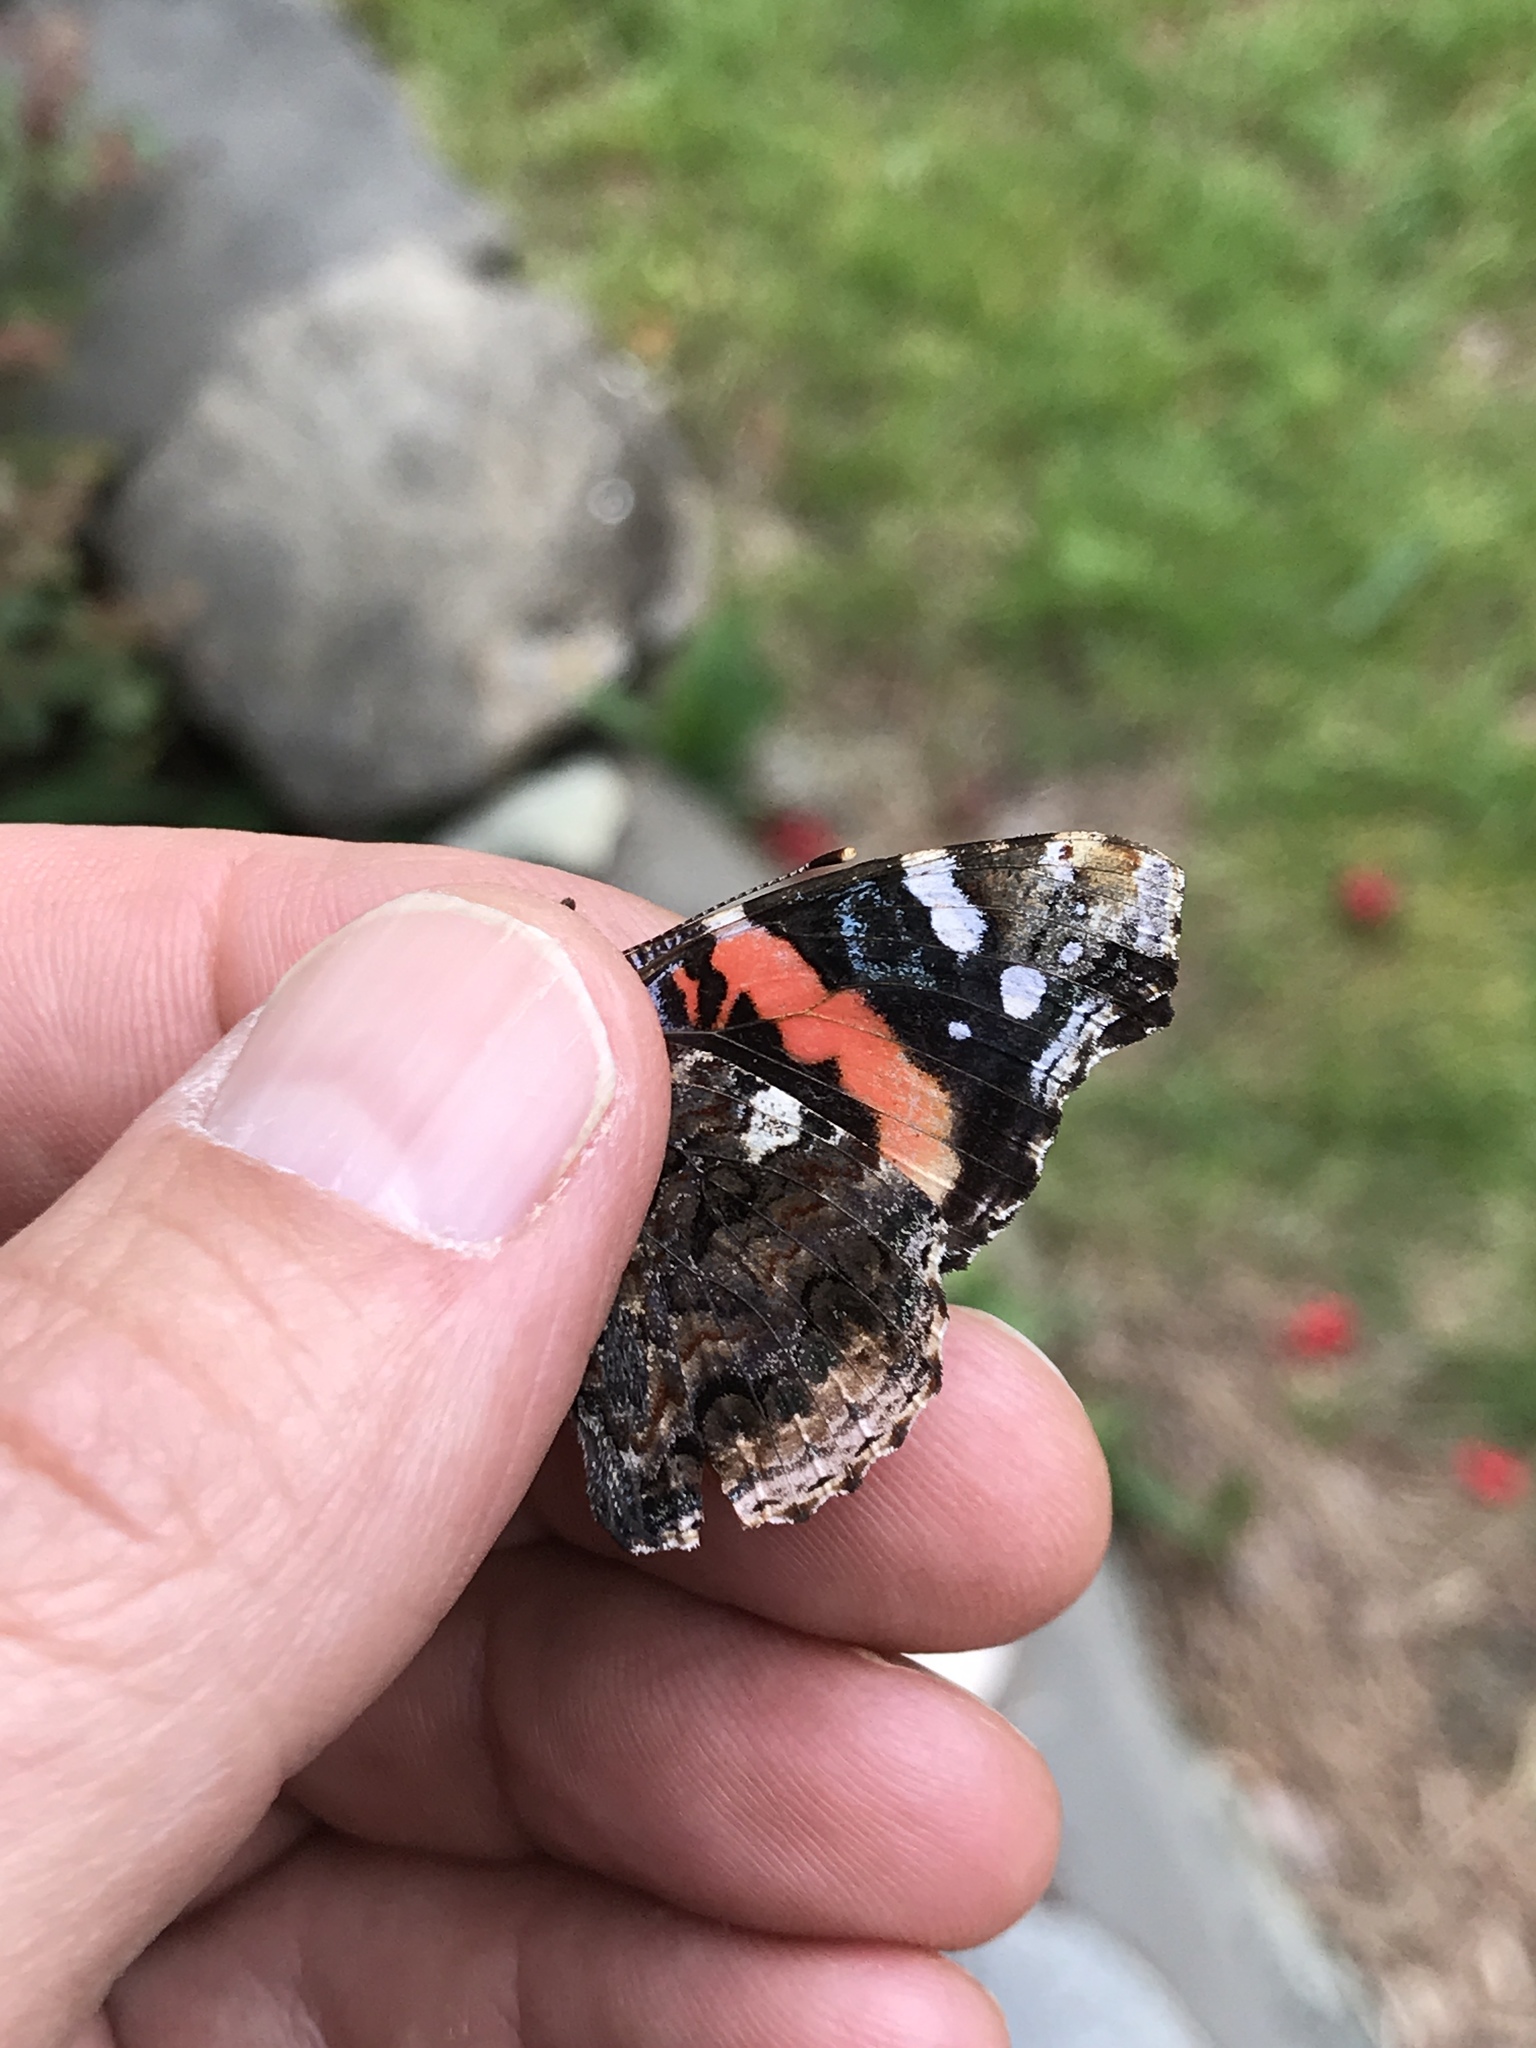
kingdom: Animalia
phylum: Arthropoda
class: Insecta
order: Lepidoptera
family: Nymphalidae
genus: Vanessa
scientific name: Vanessa atalanta
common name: Red admiral
